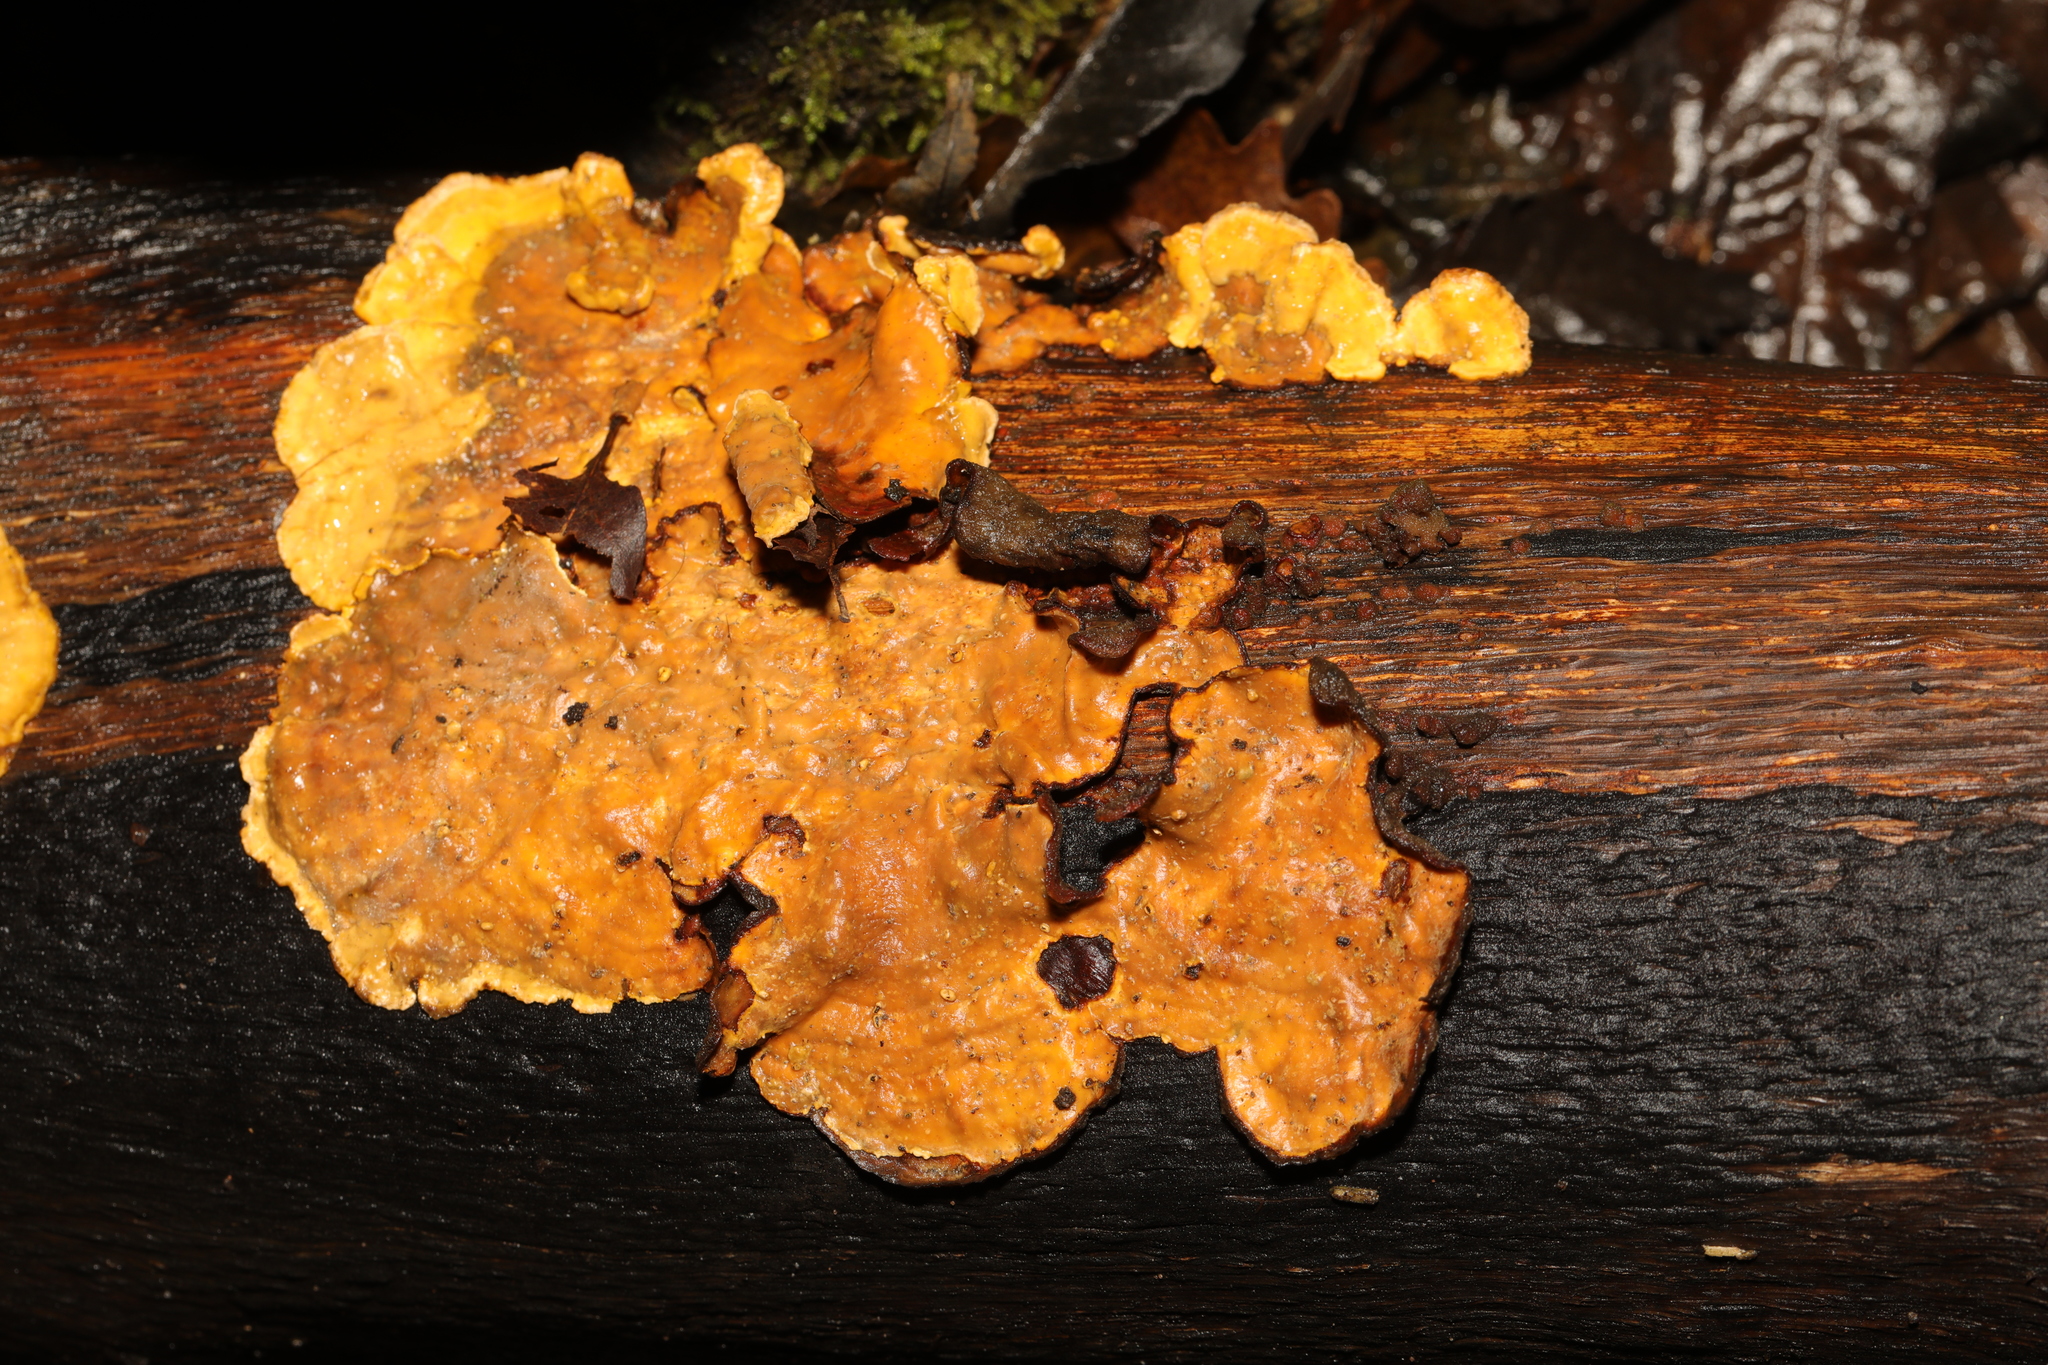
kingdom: Fungi
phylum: Basidiomycota
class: Agaricomycetes
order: Russulales
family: Stereaceae
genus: Stereum
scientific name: Stereum hirsutum
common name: Hairy curtain crust
